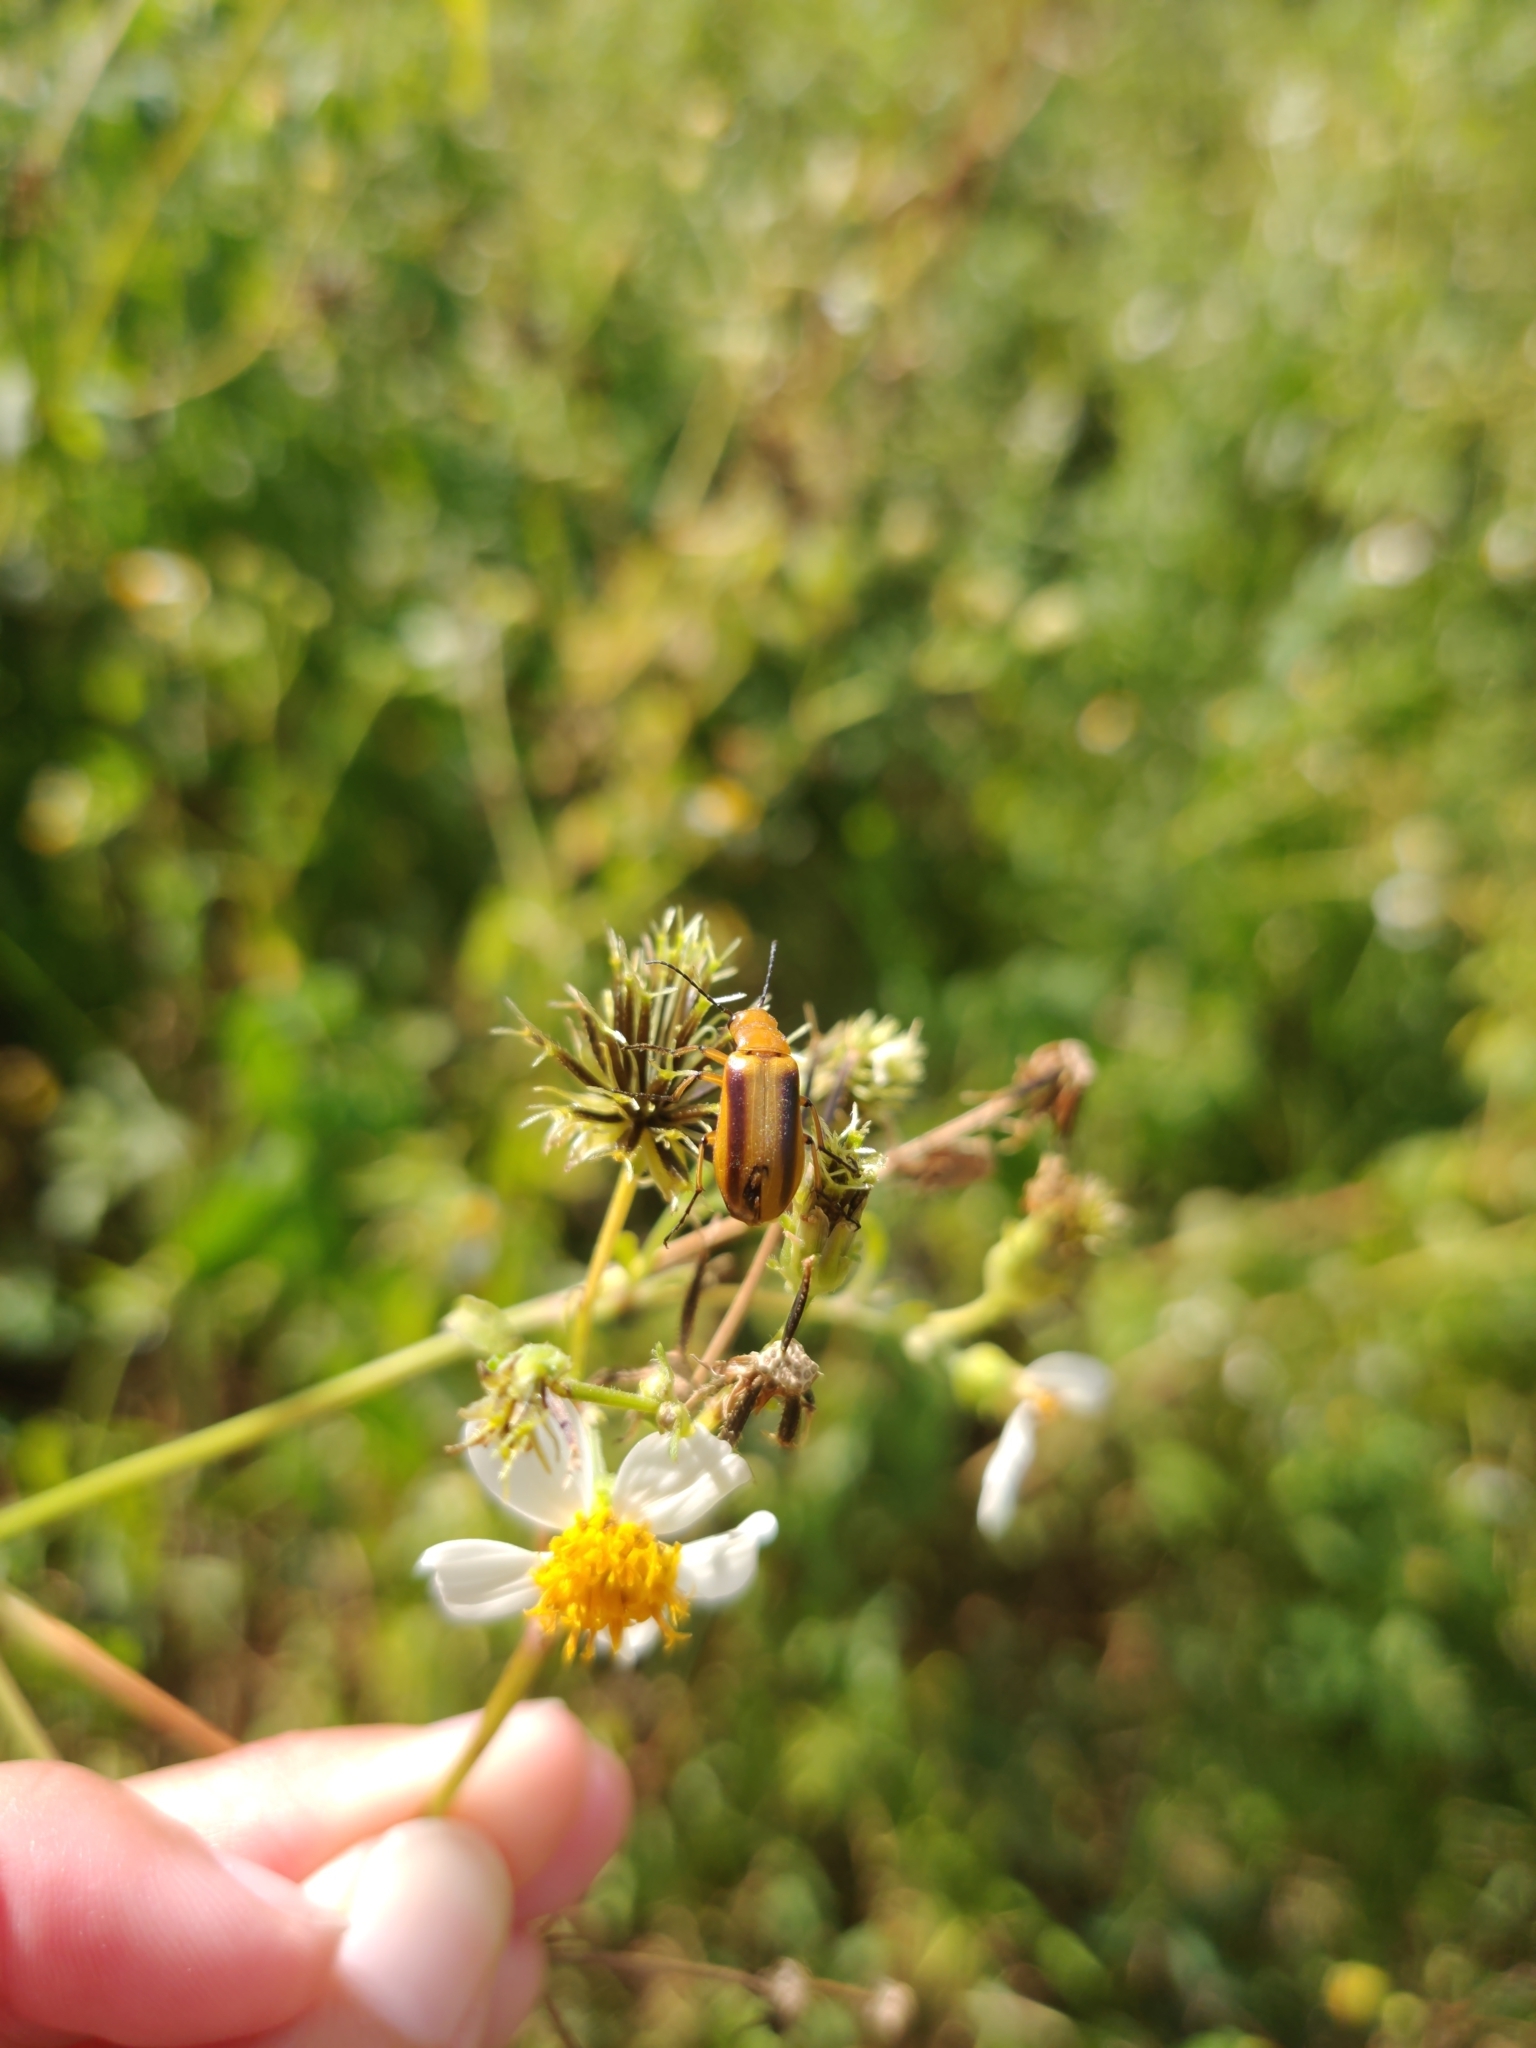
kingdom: Animalia
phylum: Arthropoda
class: Insecta
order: Coleoptera
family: Meloidae
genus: Nemognatha
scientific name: Nemognatha punctulata
